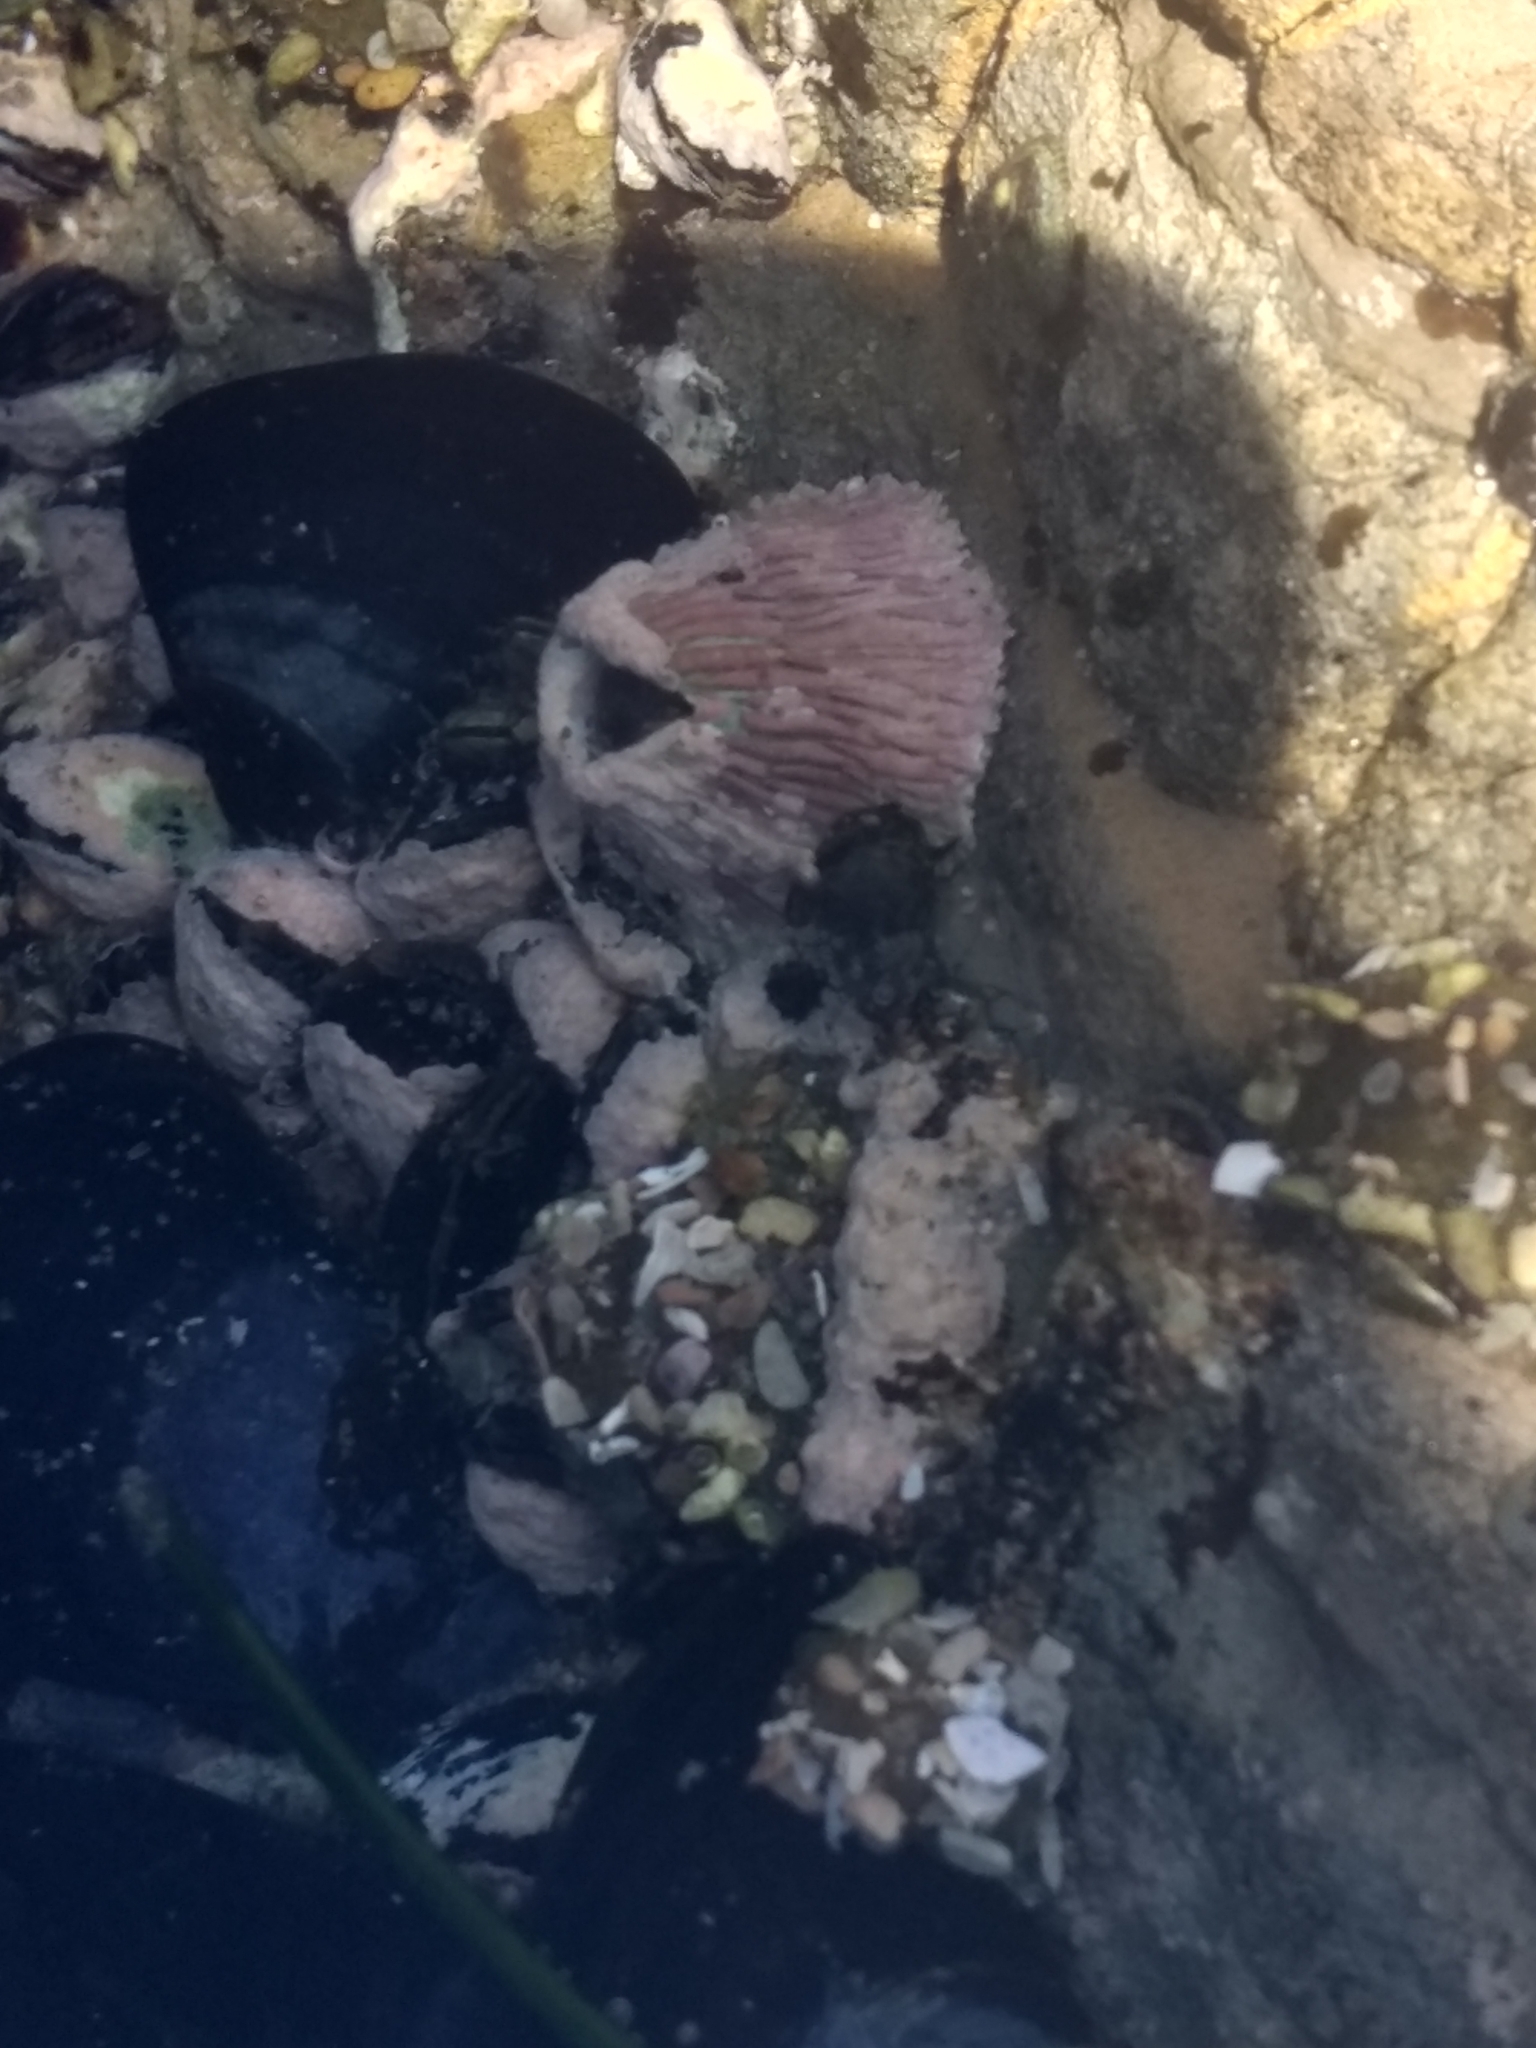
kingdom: Animalia
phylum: Arthropoda
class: Maxillopoda
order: Sessilia
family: Tetraclitidae
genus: Tetraclita
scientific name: Tetraclita rubescens
